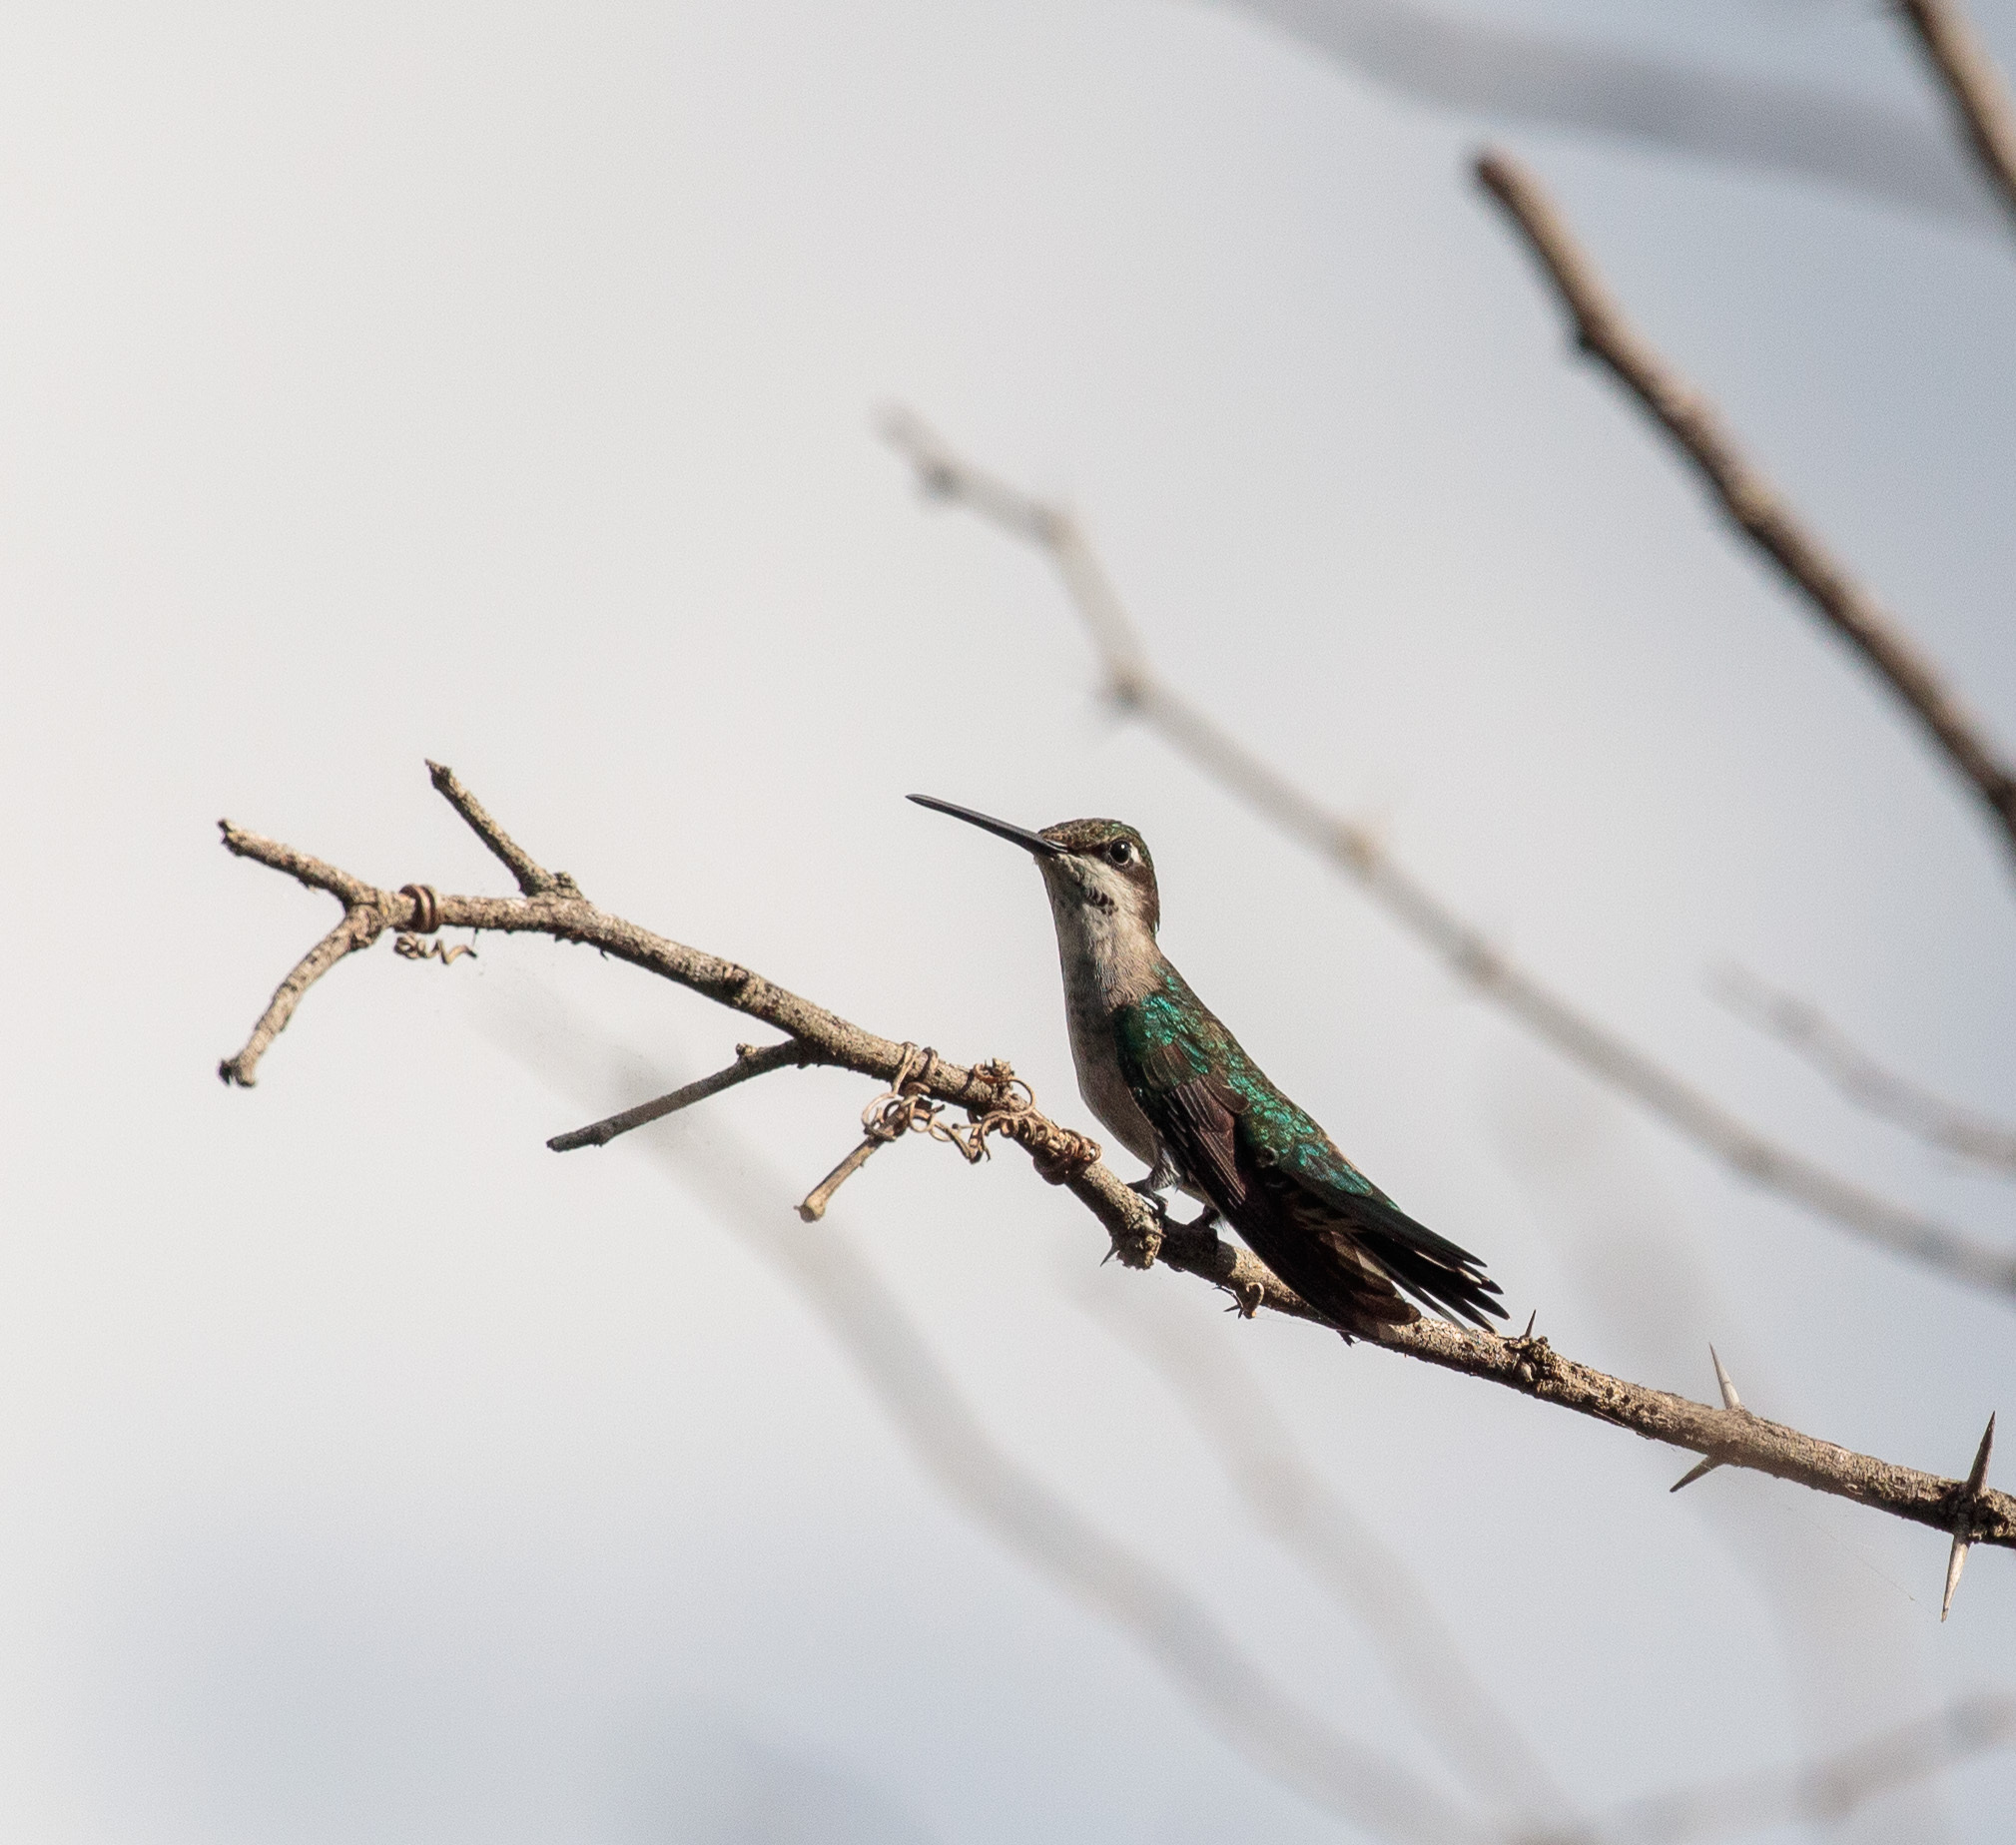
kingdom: Animalia
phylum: Chordata
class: Aves
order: Apodiformes
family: Trochilidae
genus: Heliomaster
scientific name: Heliomaster squamosus
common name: Stripe-breasted starthroat
